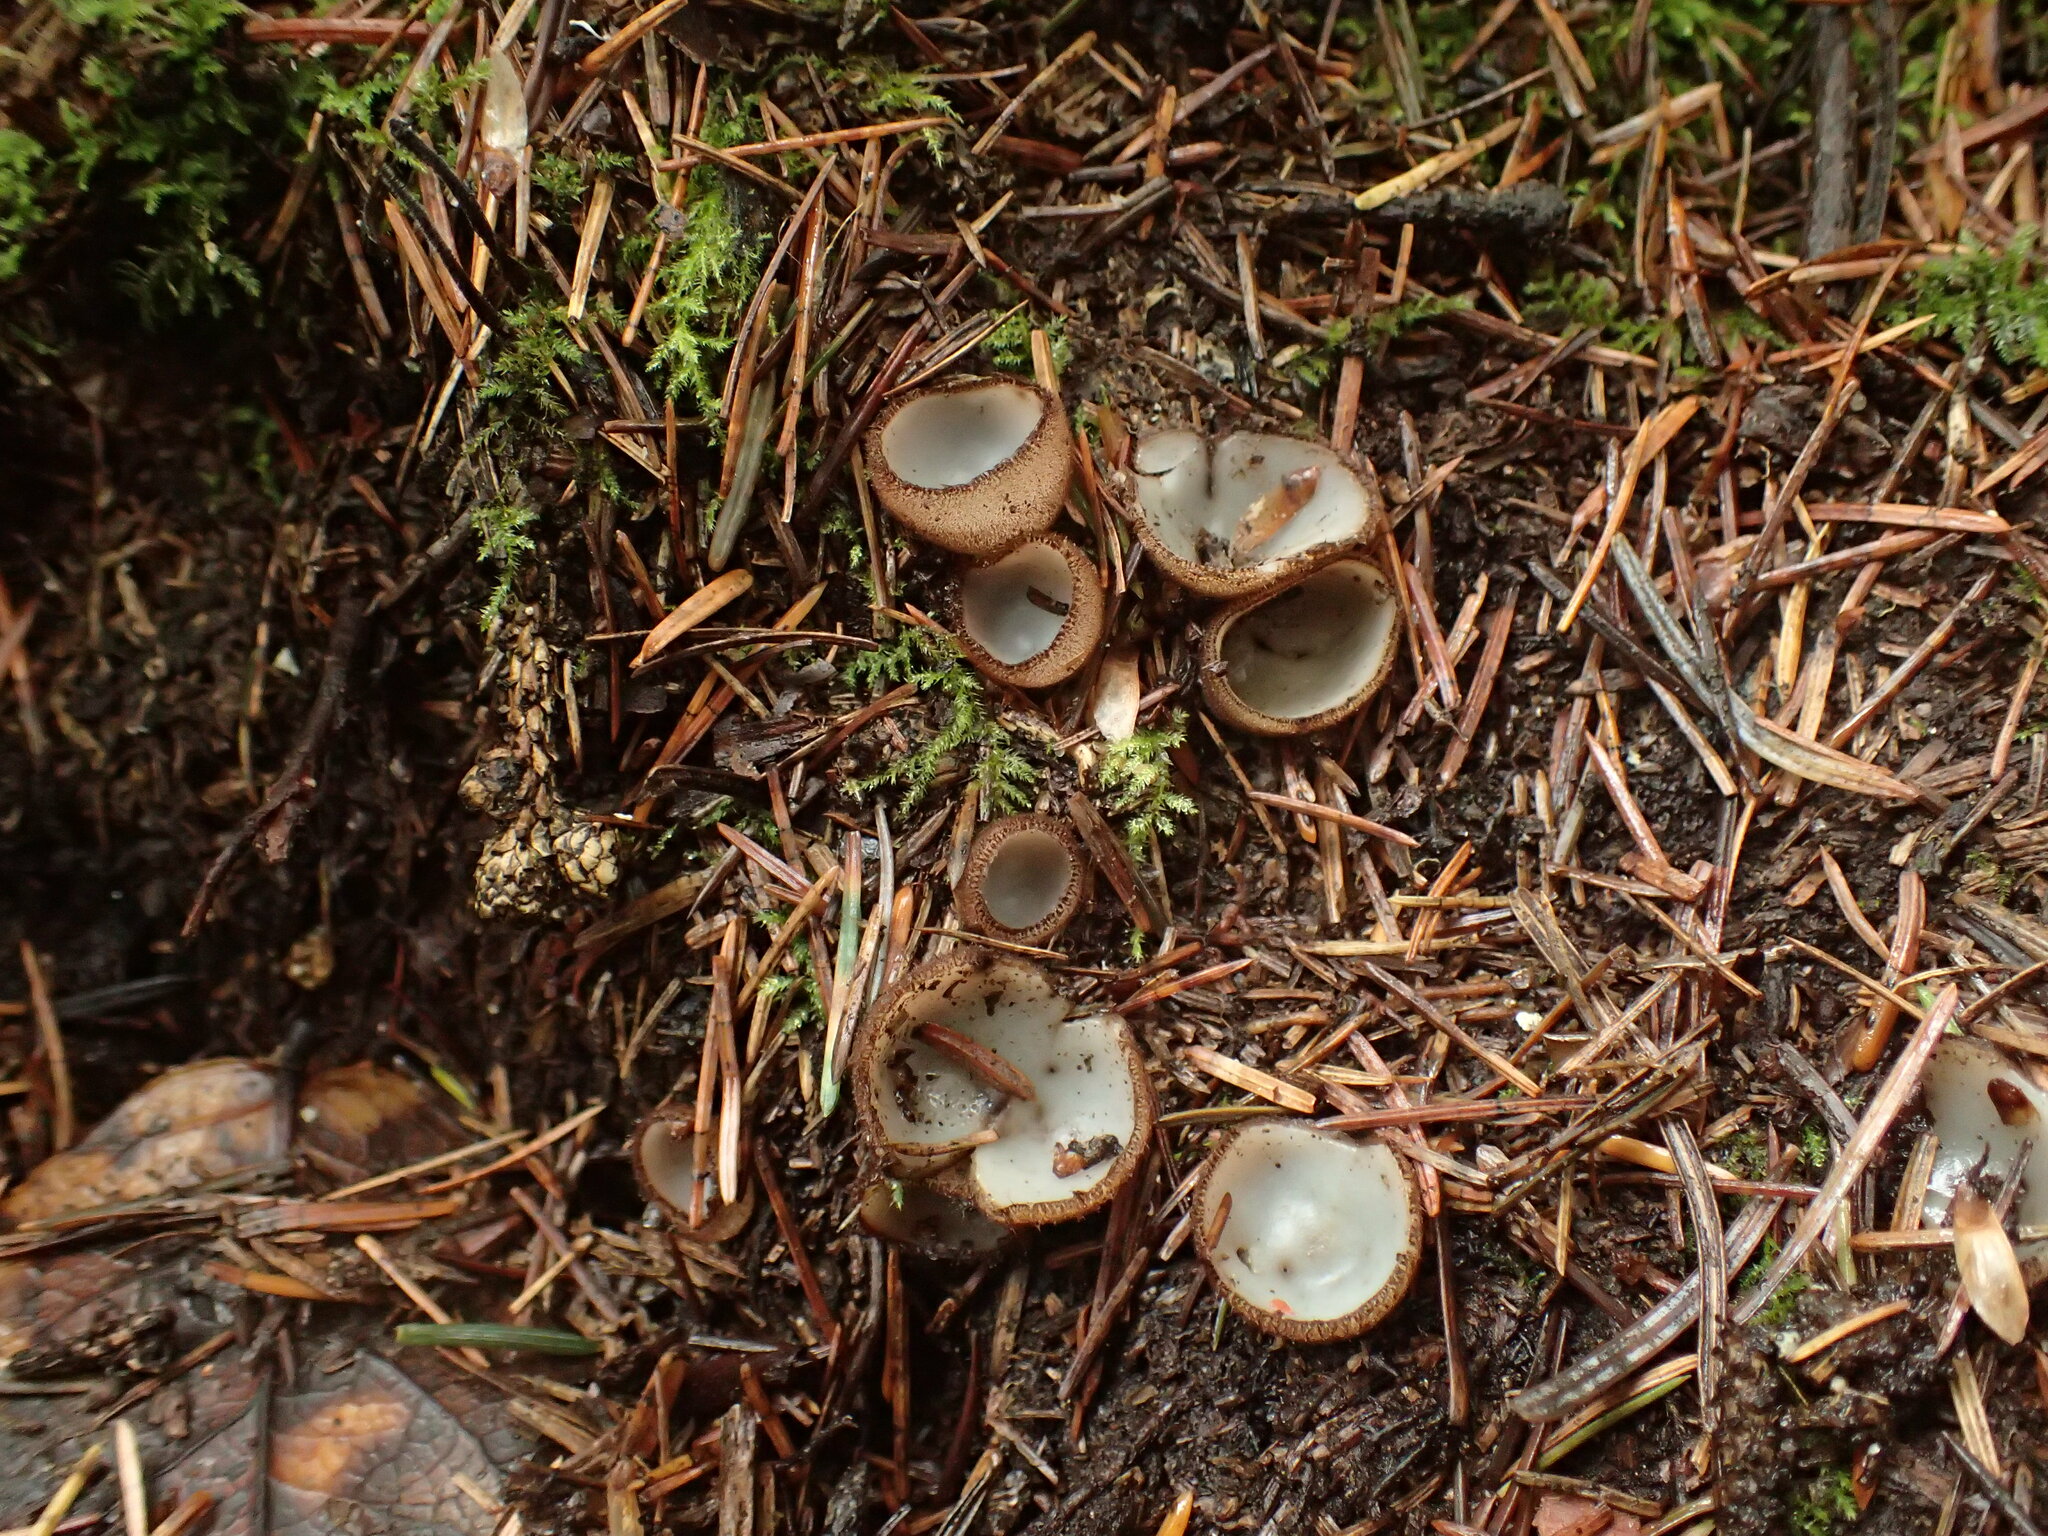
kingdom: Fungi
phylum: Ascomycota
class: Pezizomycetes
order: Pezizales
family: Pyronemataceae
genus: Humaria
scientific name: Humaria hemisphaerica
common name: Glazed cup
